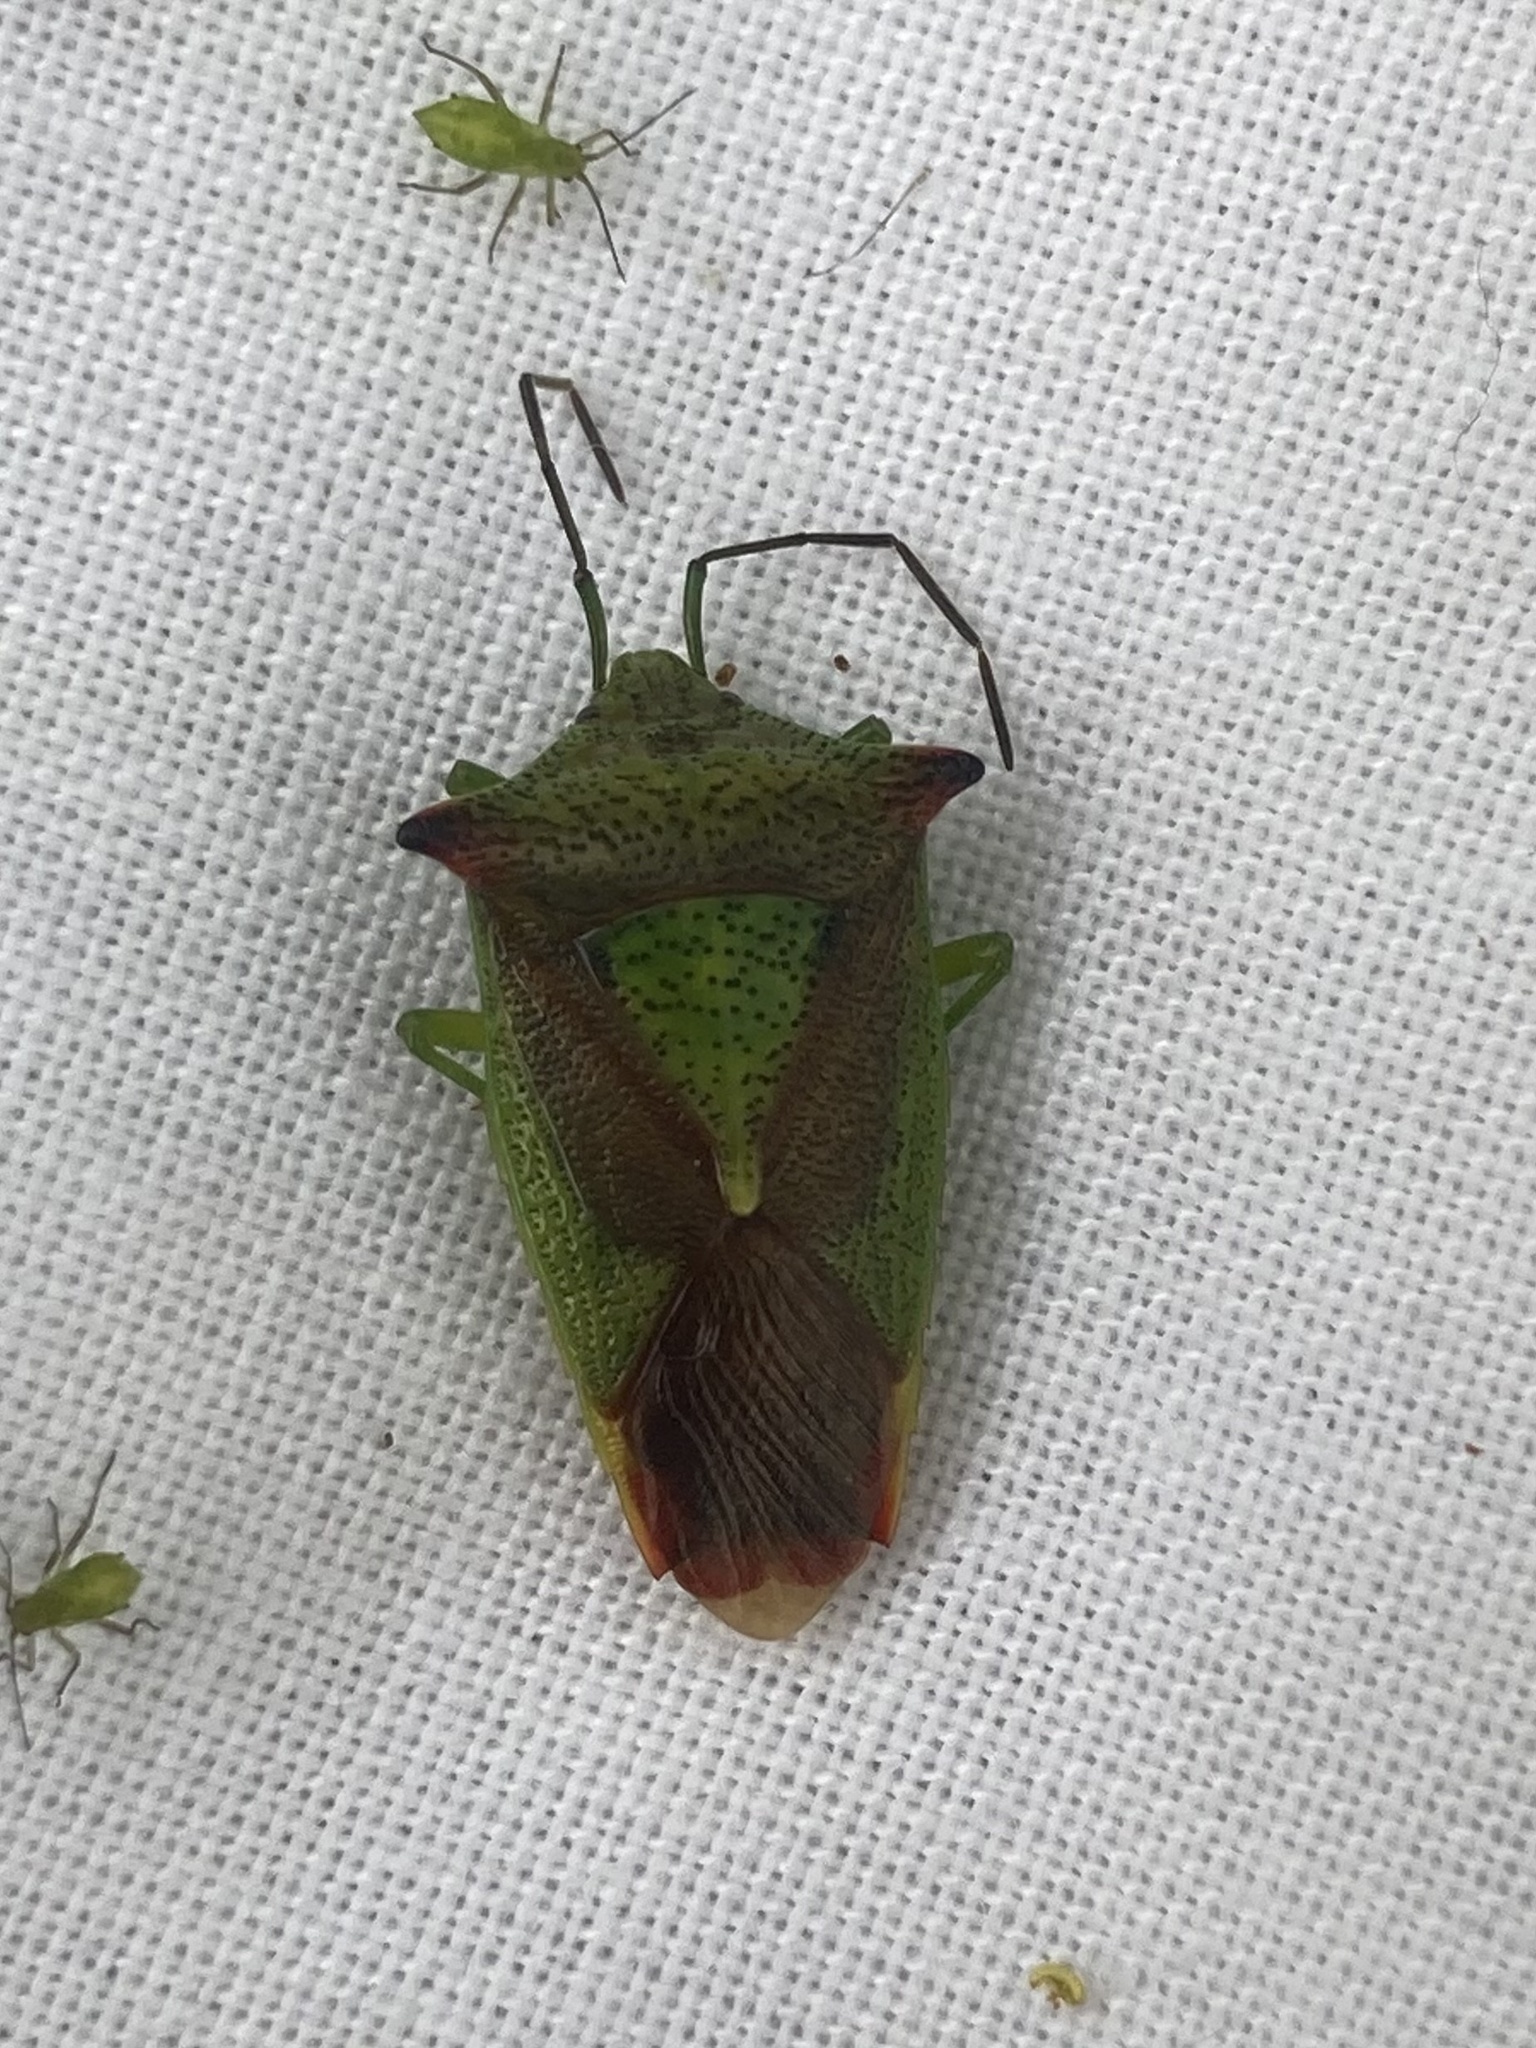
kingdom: Animalia
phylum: Arthropoda
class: Insecta
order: Hemiptera
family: Acanthosomatidae
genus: Acanthosoma
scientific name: Acanthosoma haemorrhoidale
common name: Hawthorn shieldbug
